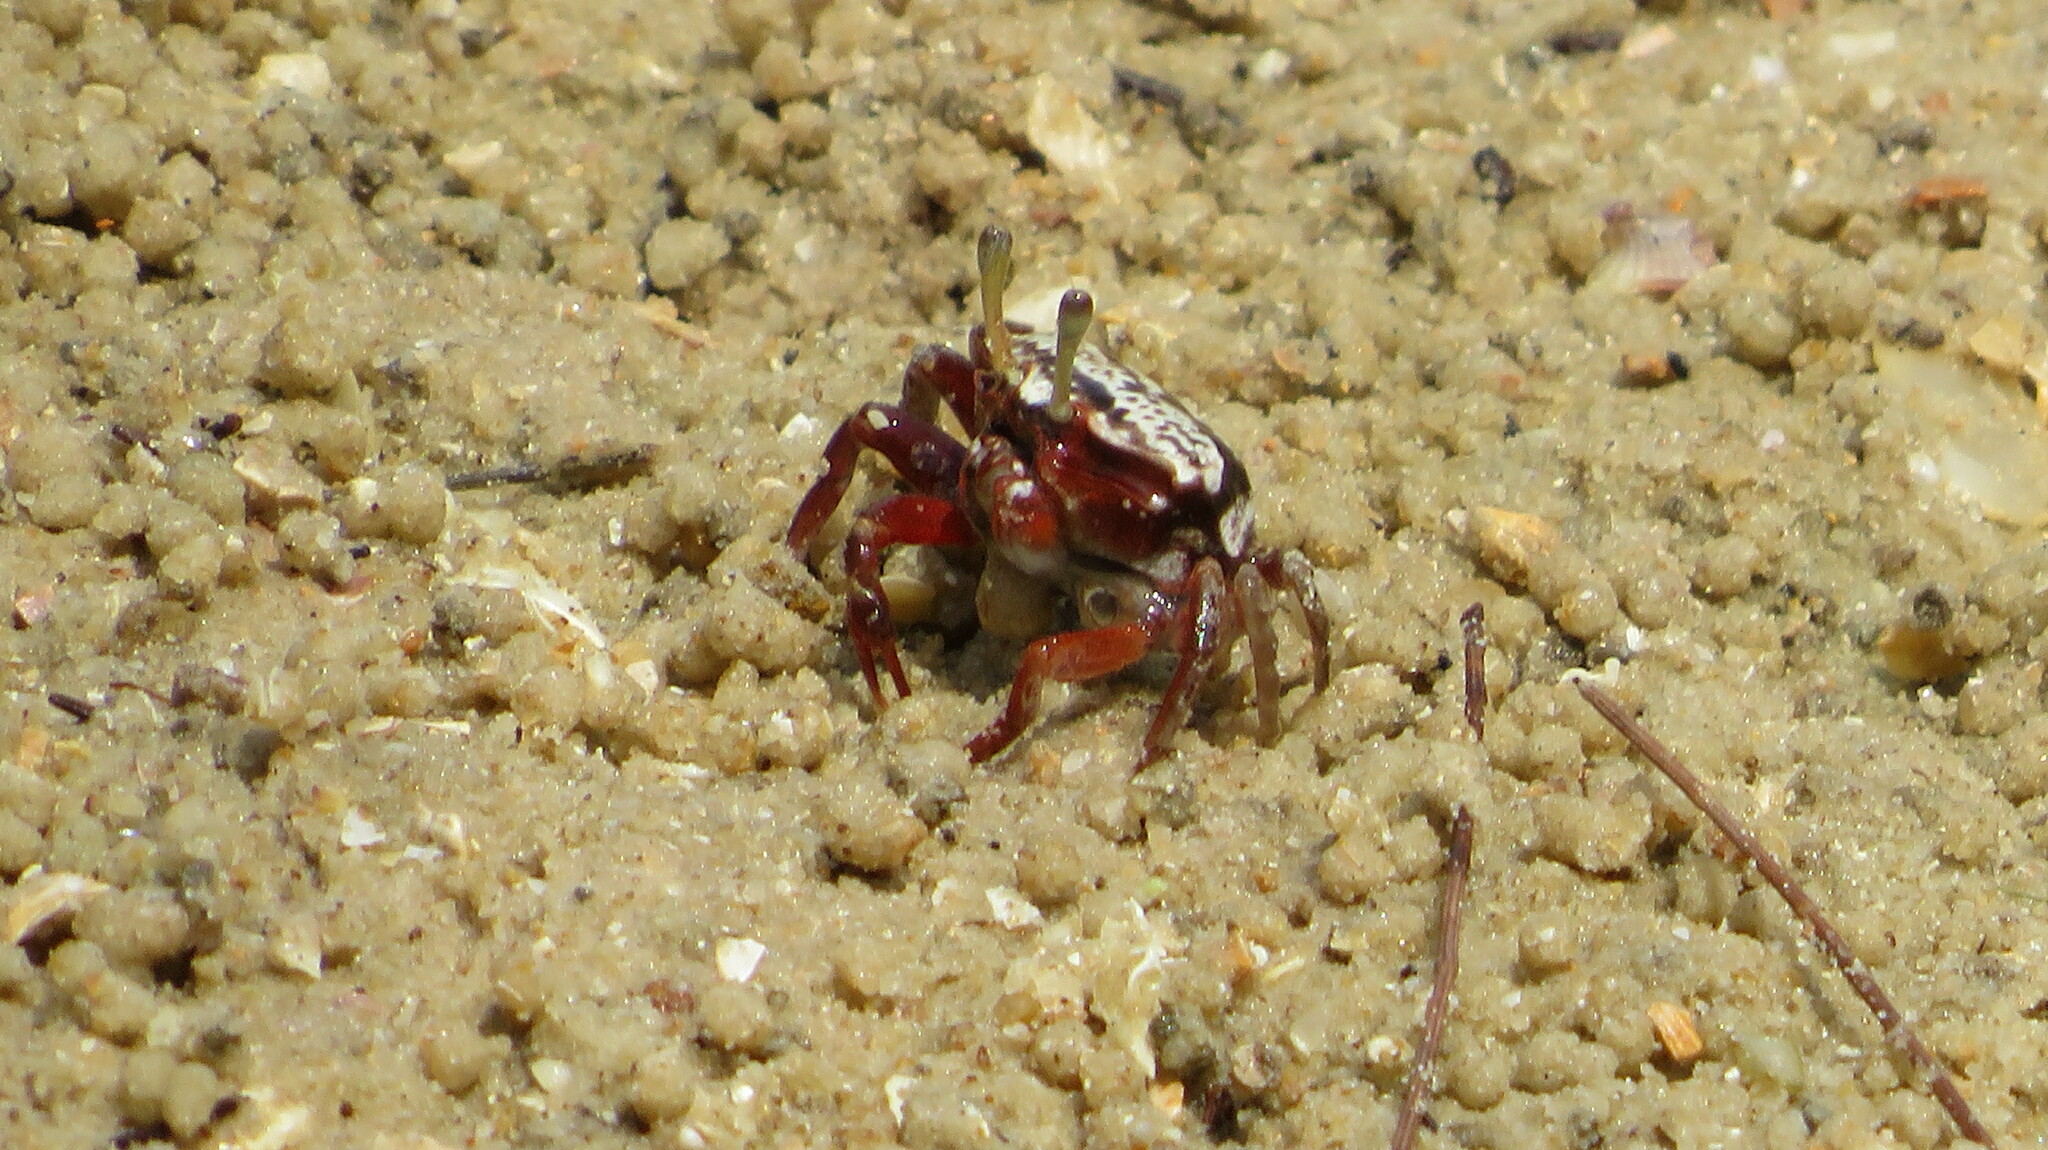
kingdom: Animalia
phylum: Arthropoda
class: Malacostraca
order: Decapoda
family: Ocypodidae
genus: Austruca
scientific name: Austruca annulipes
